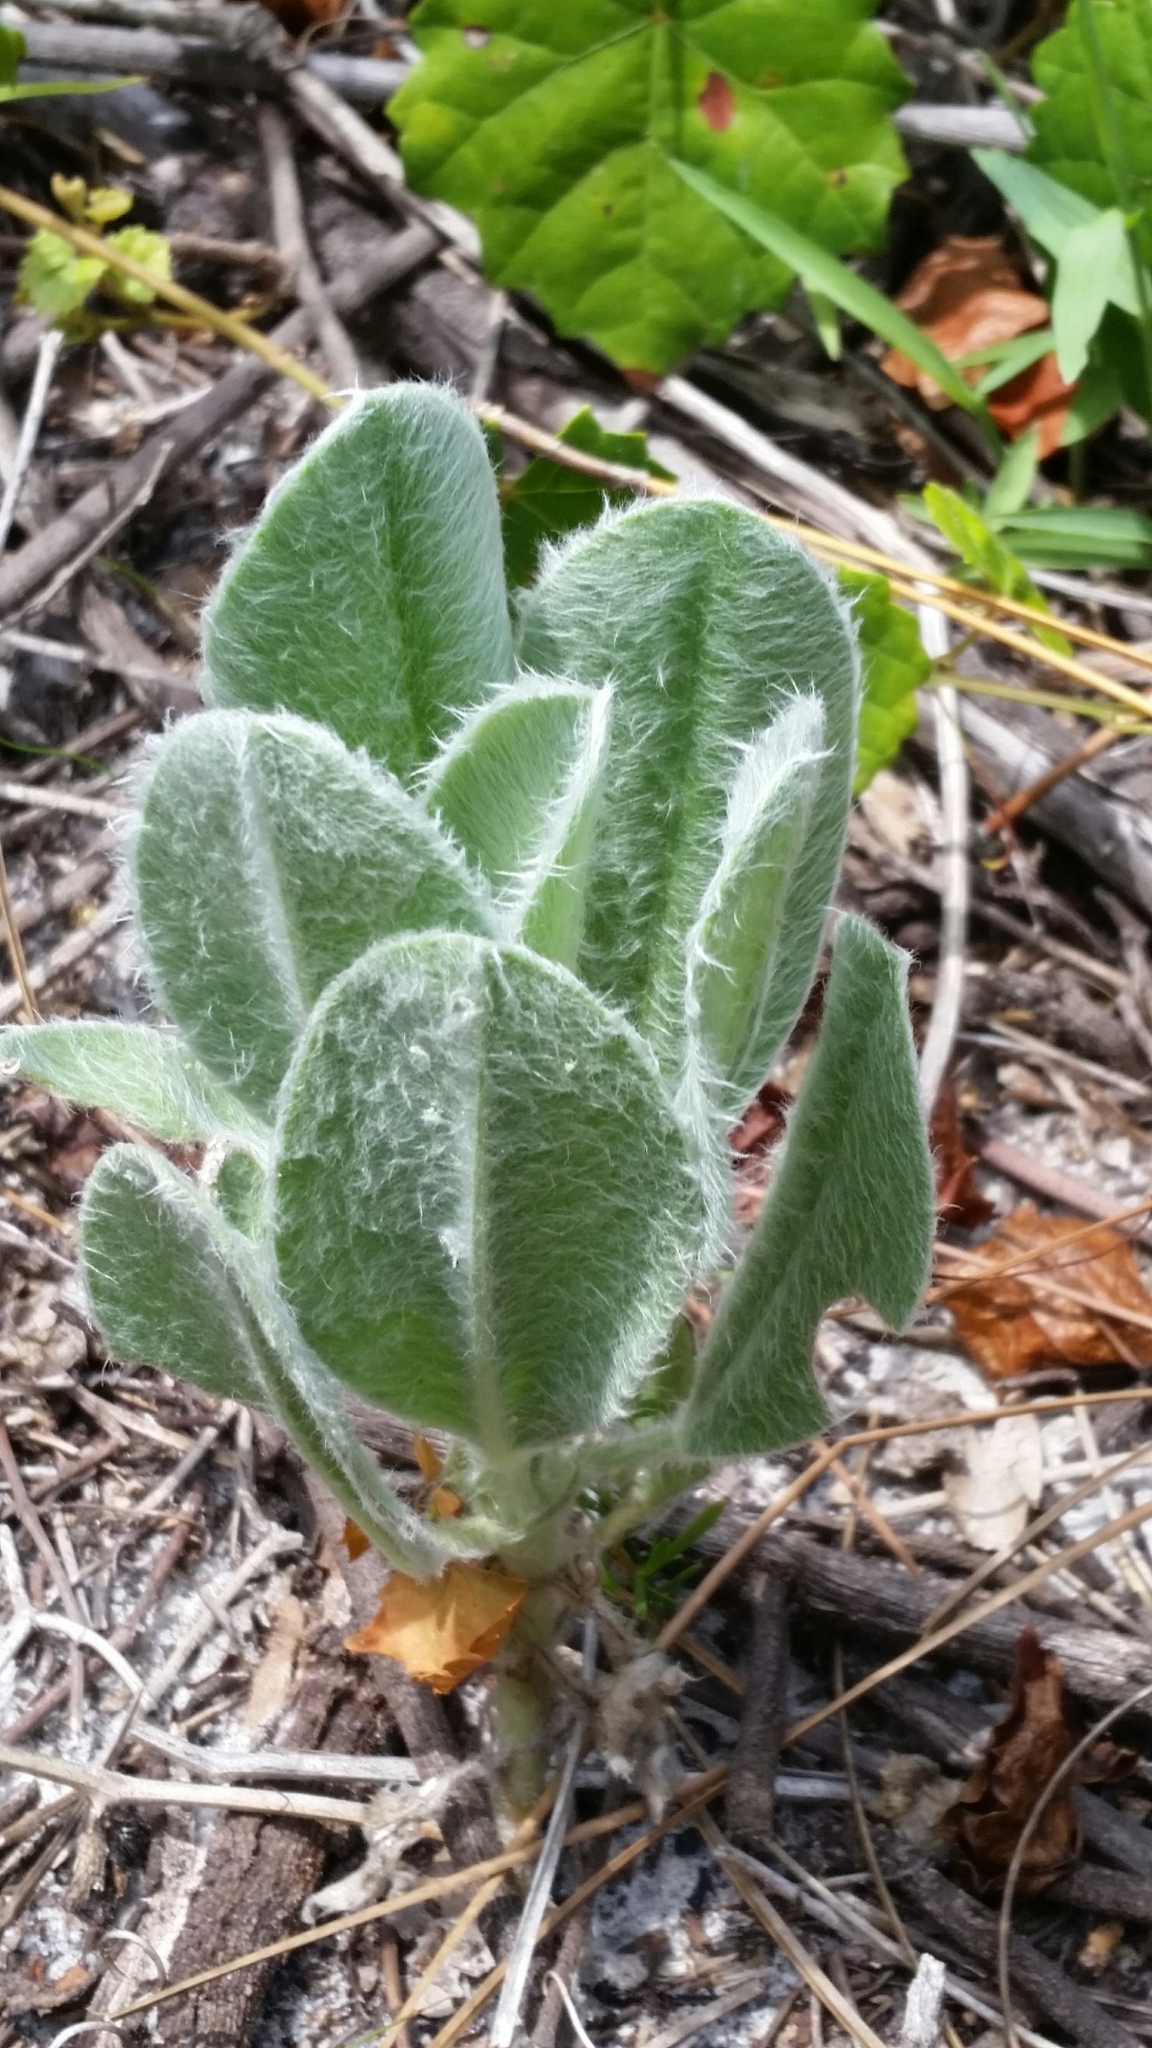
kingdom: Plantae
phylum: Tracheophyta
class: Magnoliopsida
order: Fabales
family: Fabaceae
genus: Lupinus
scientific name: Lupinus
